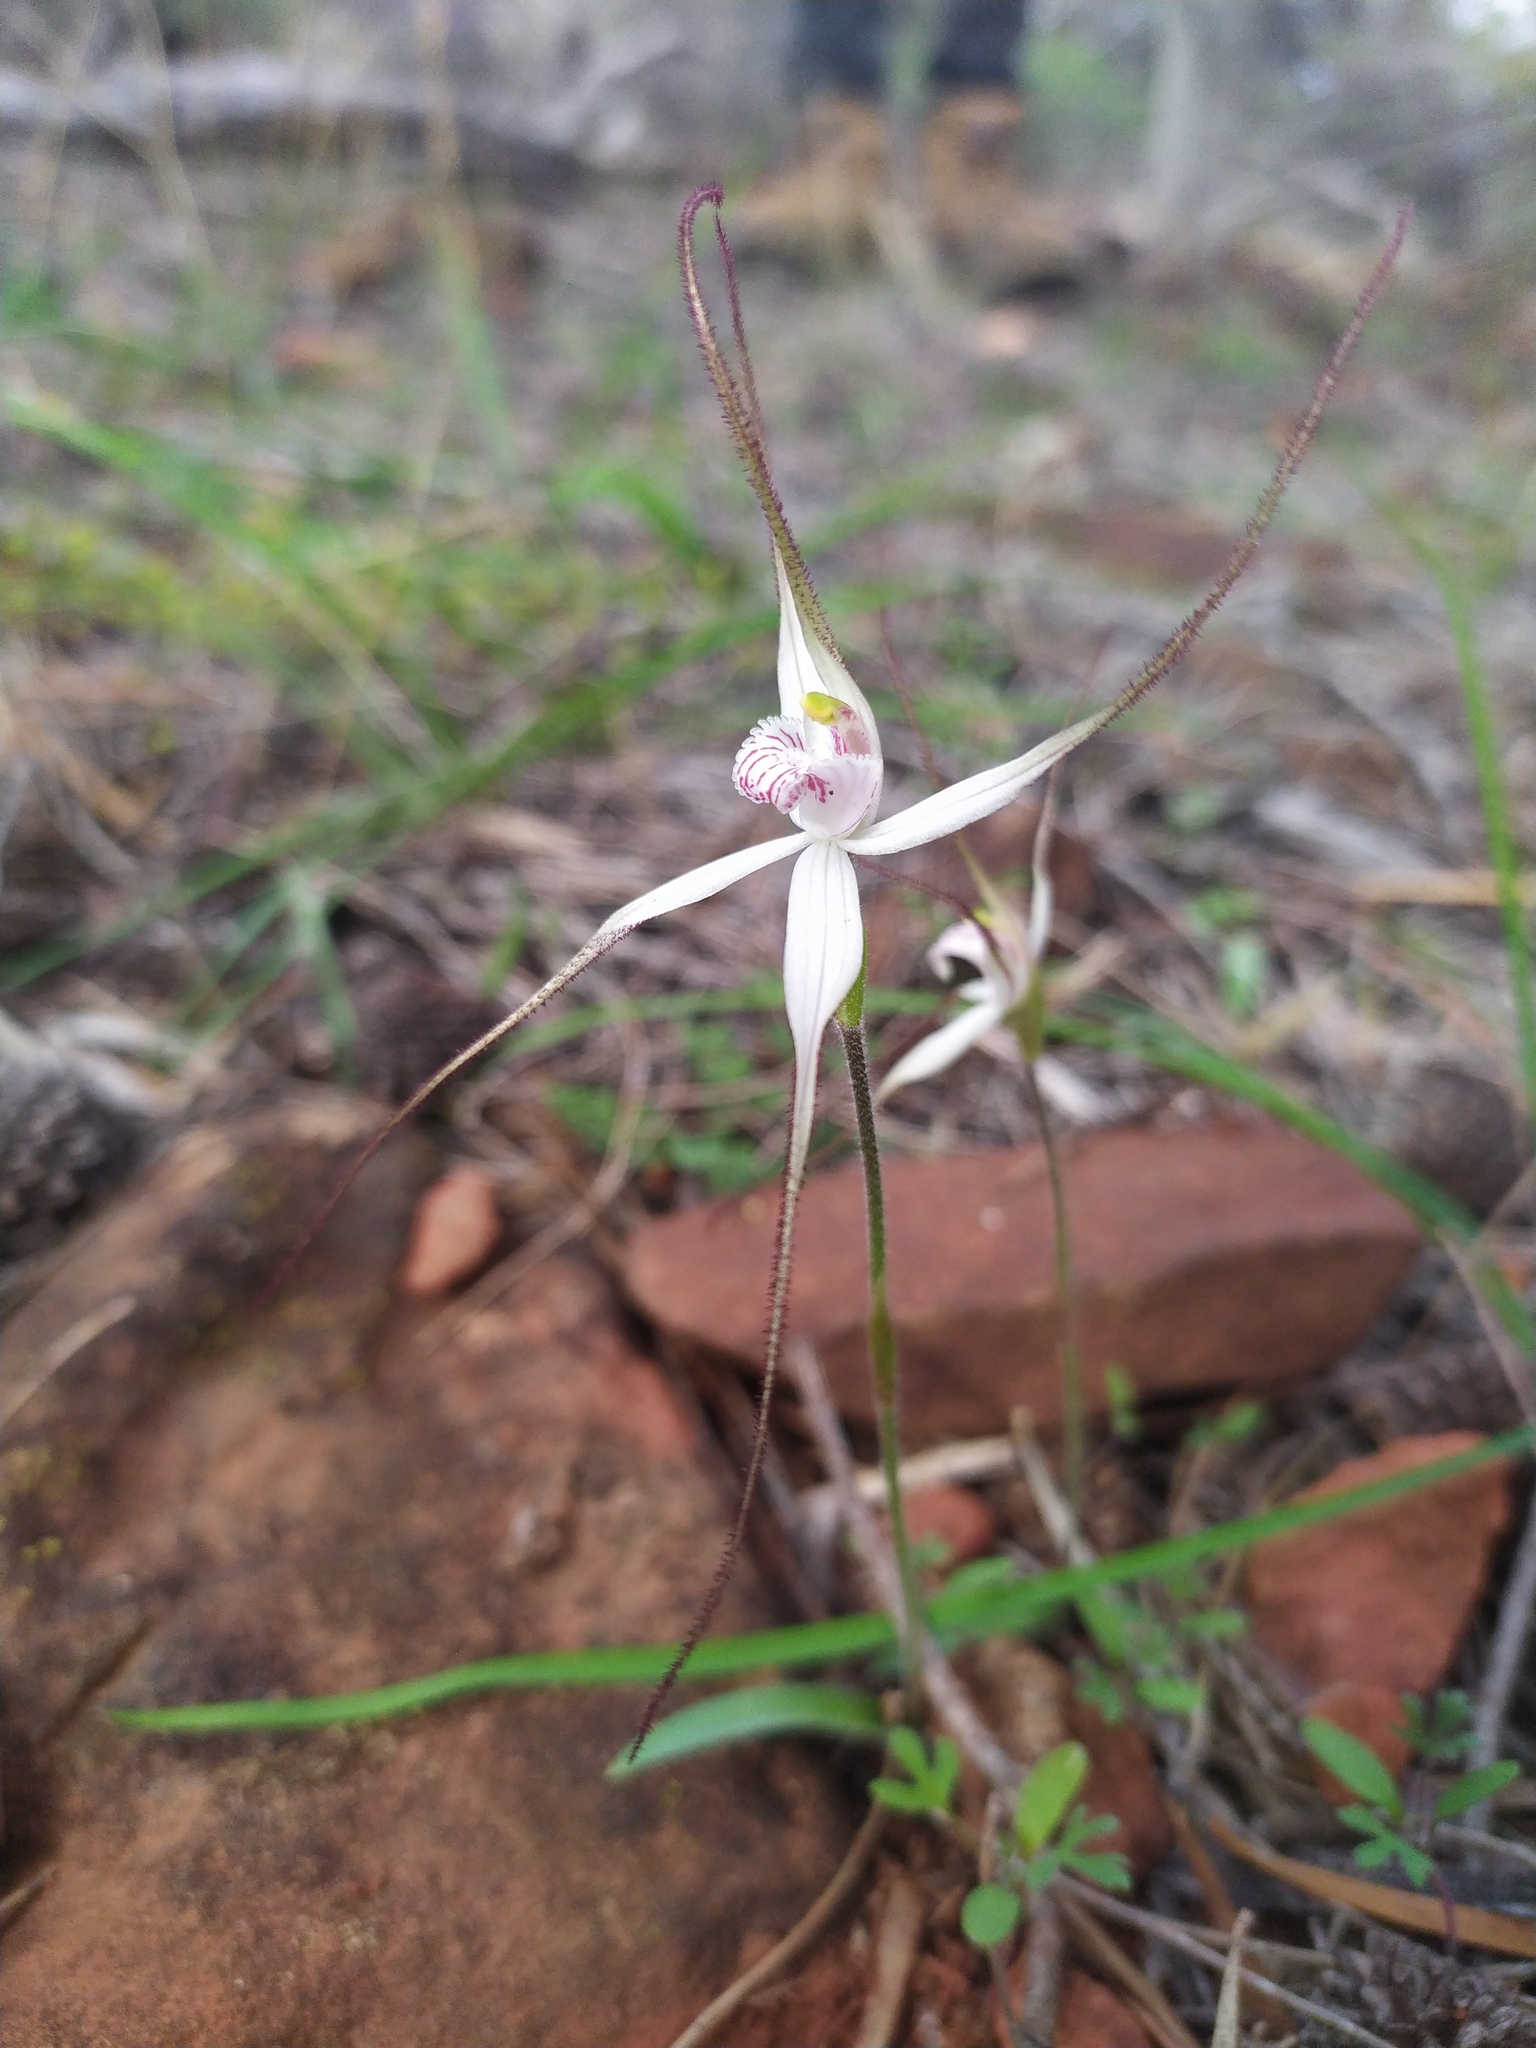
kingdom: Plantae
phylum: Tracheophyta
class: Liliopsida
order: Asparagales
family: Orchidaceae
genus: Caladenia
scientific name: Caladenia saxicola
